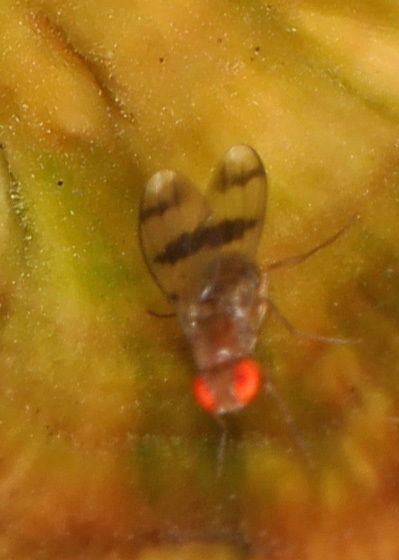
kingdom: Animalia
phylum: Arthropoda
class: Insecta
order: Diptera
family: Drosophilidae
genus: Chymomyza
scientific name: Chymomyza amoena
